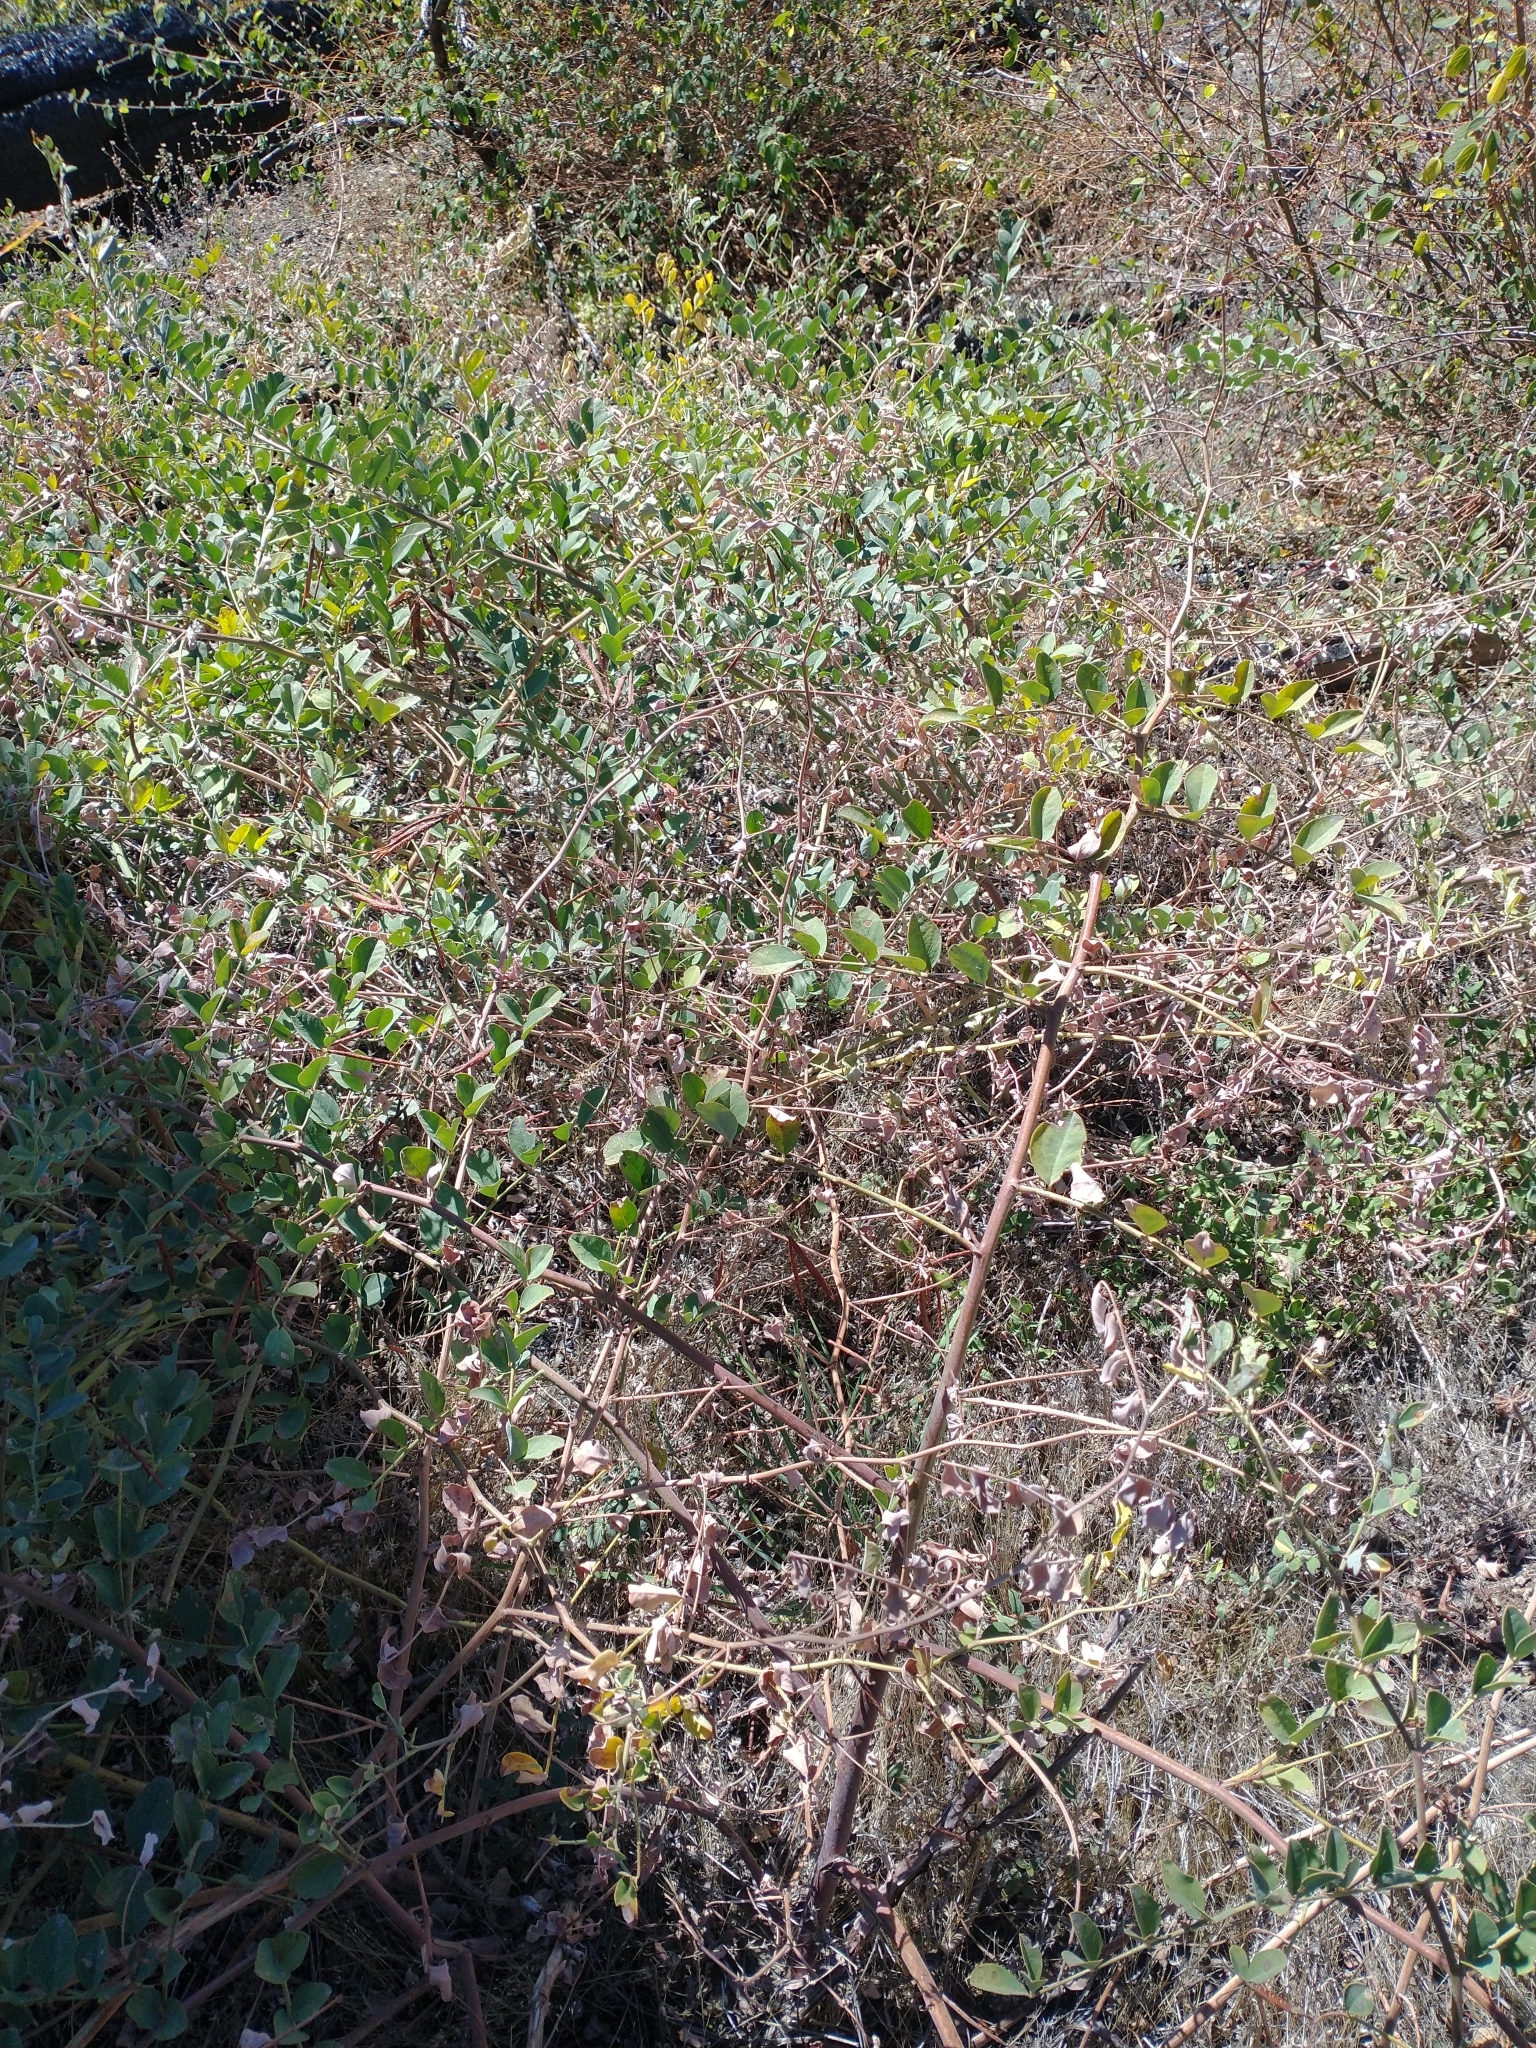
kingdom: Plantae
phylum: Tracheophyta
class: Magnoliopsida
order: Fabales
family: Fabaceae
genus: Hosackia
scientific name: Hosackia crassifolia
